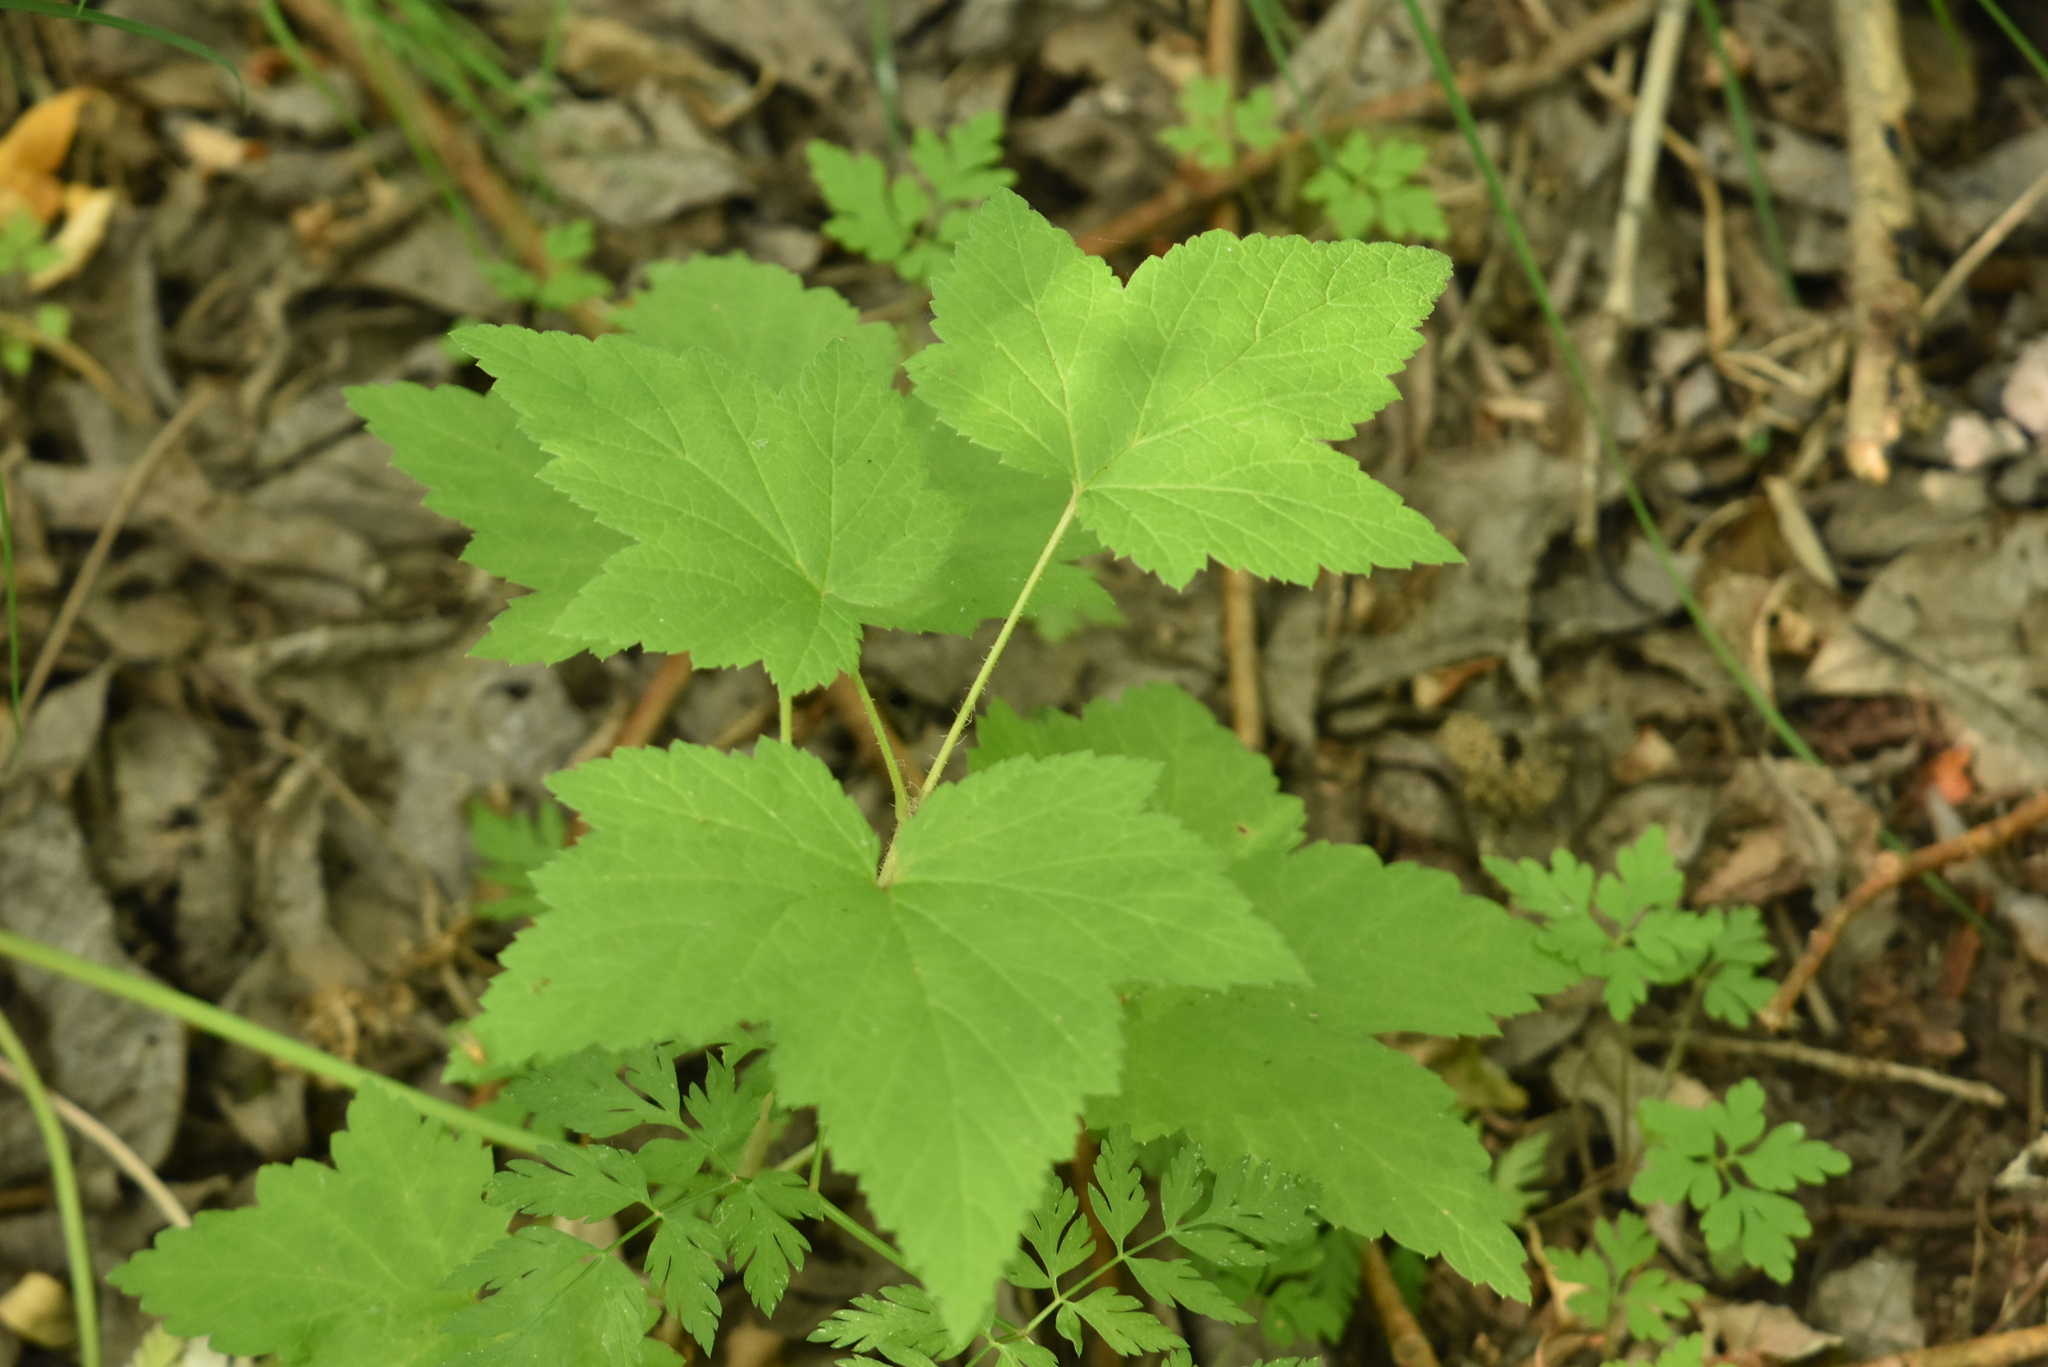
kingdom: Plantae
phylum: Tracheophyta
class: Magnoliopsida
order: Saxifragales
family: Grossulariaceae
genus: Ribes
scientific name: Ribes nigrum
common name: Black currant
